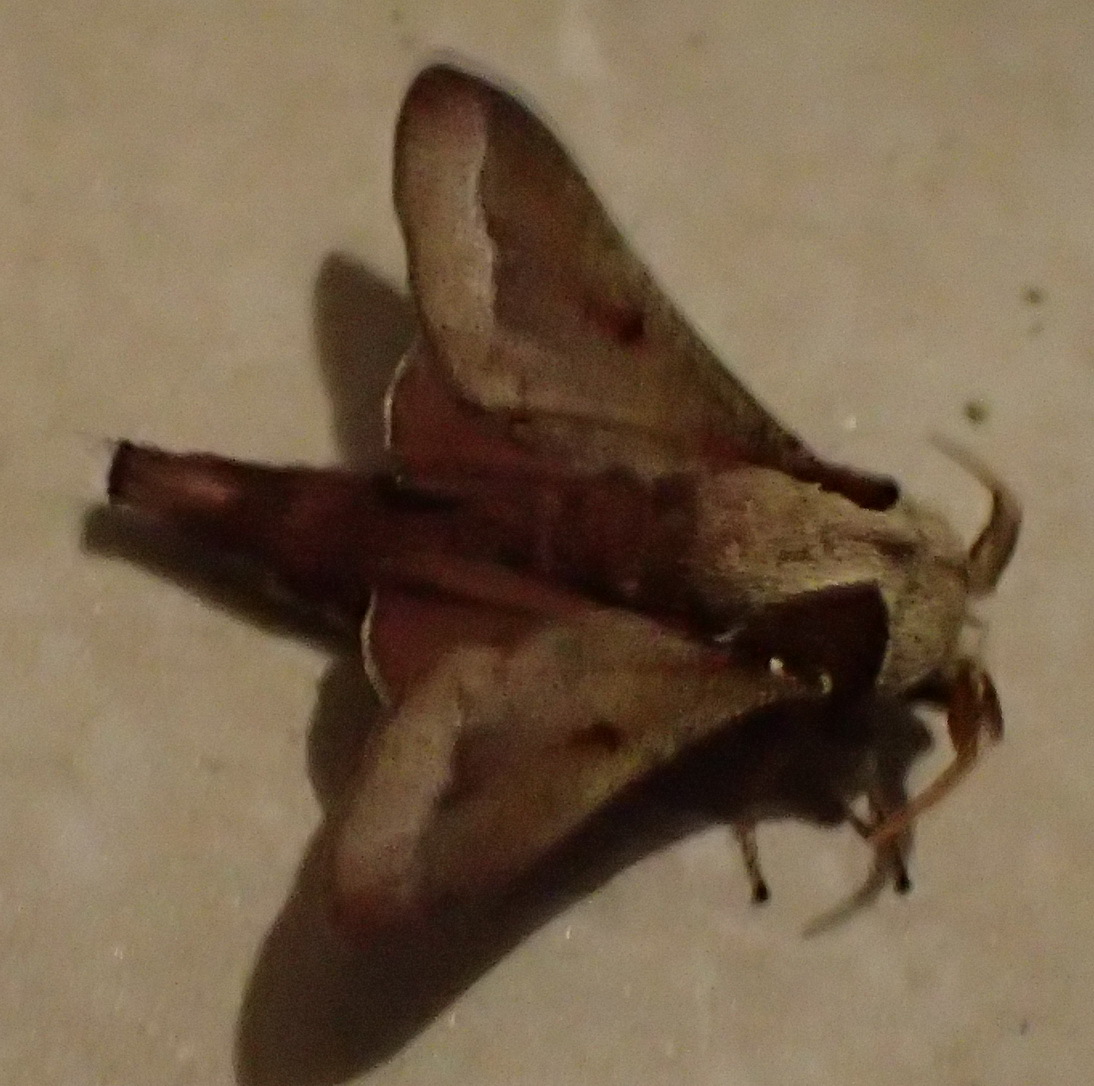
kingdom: Animalia
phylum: Arthropoda
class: Insecta
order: Lepidoptera
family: Lasiocampidae
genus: Streblote
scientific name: Streblote uniforme
